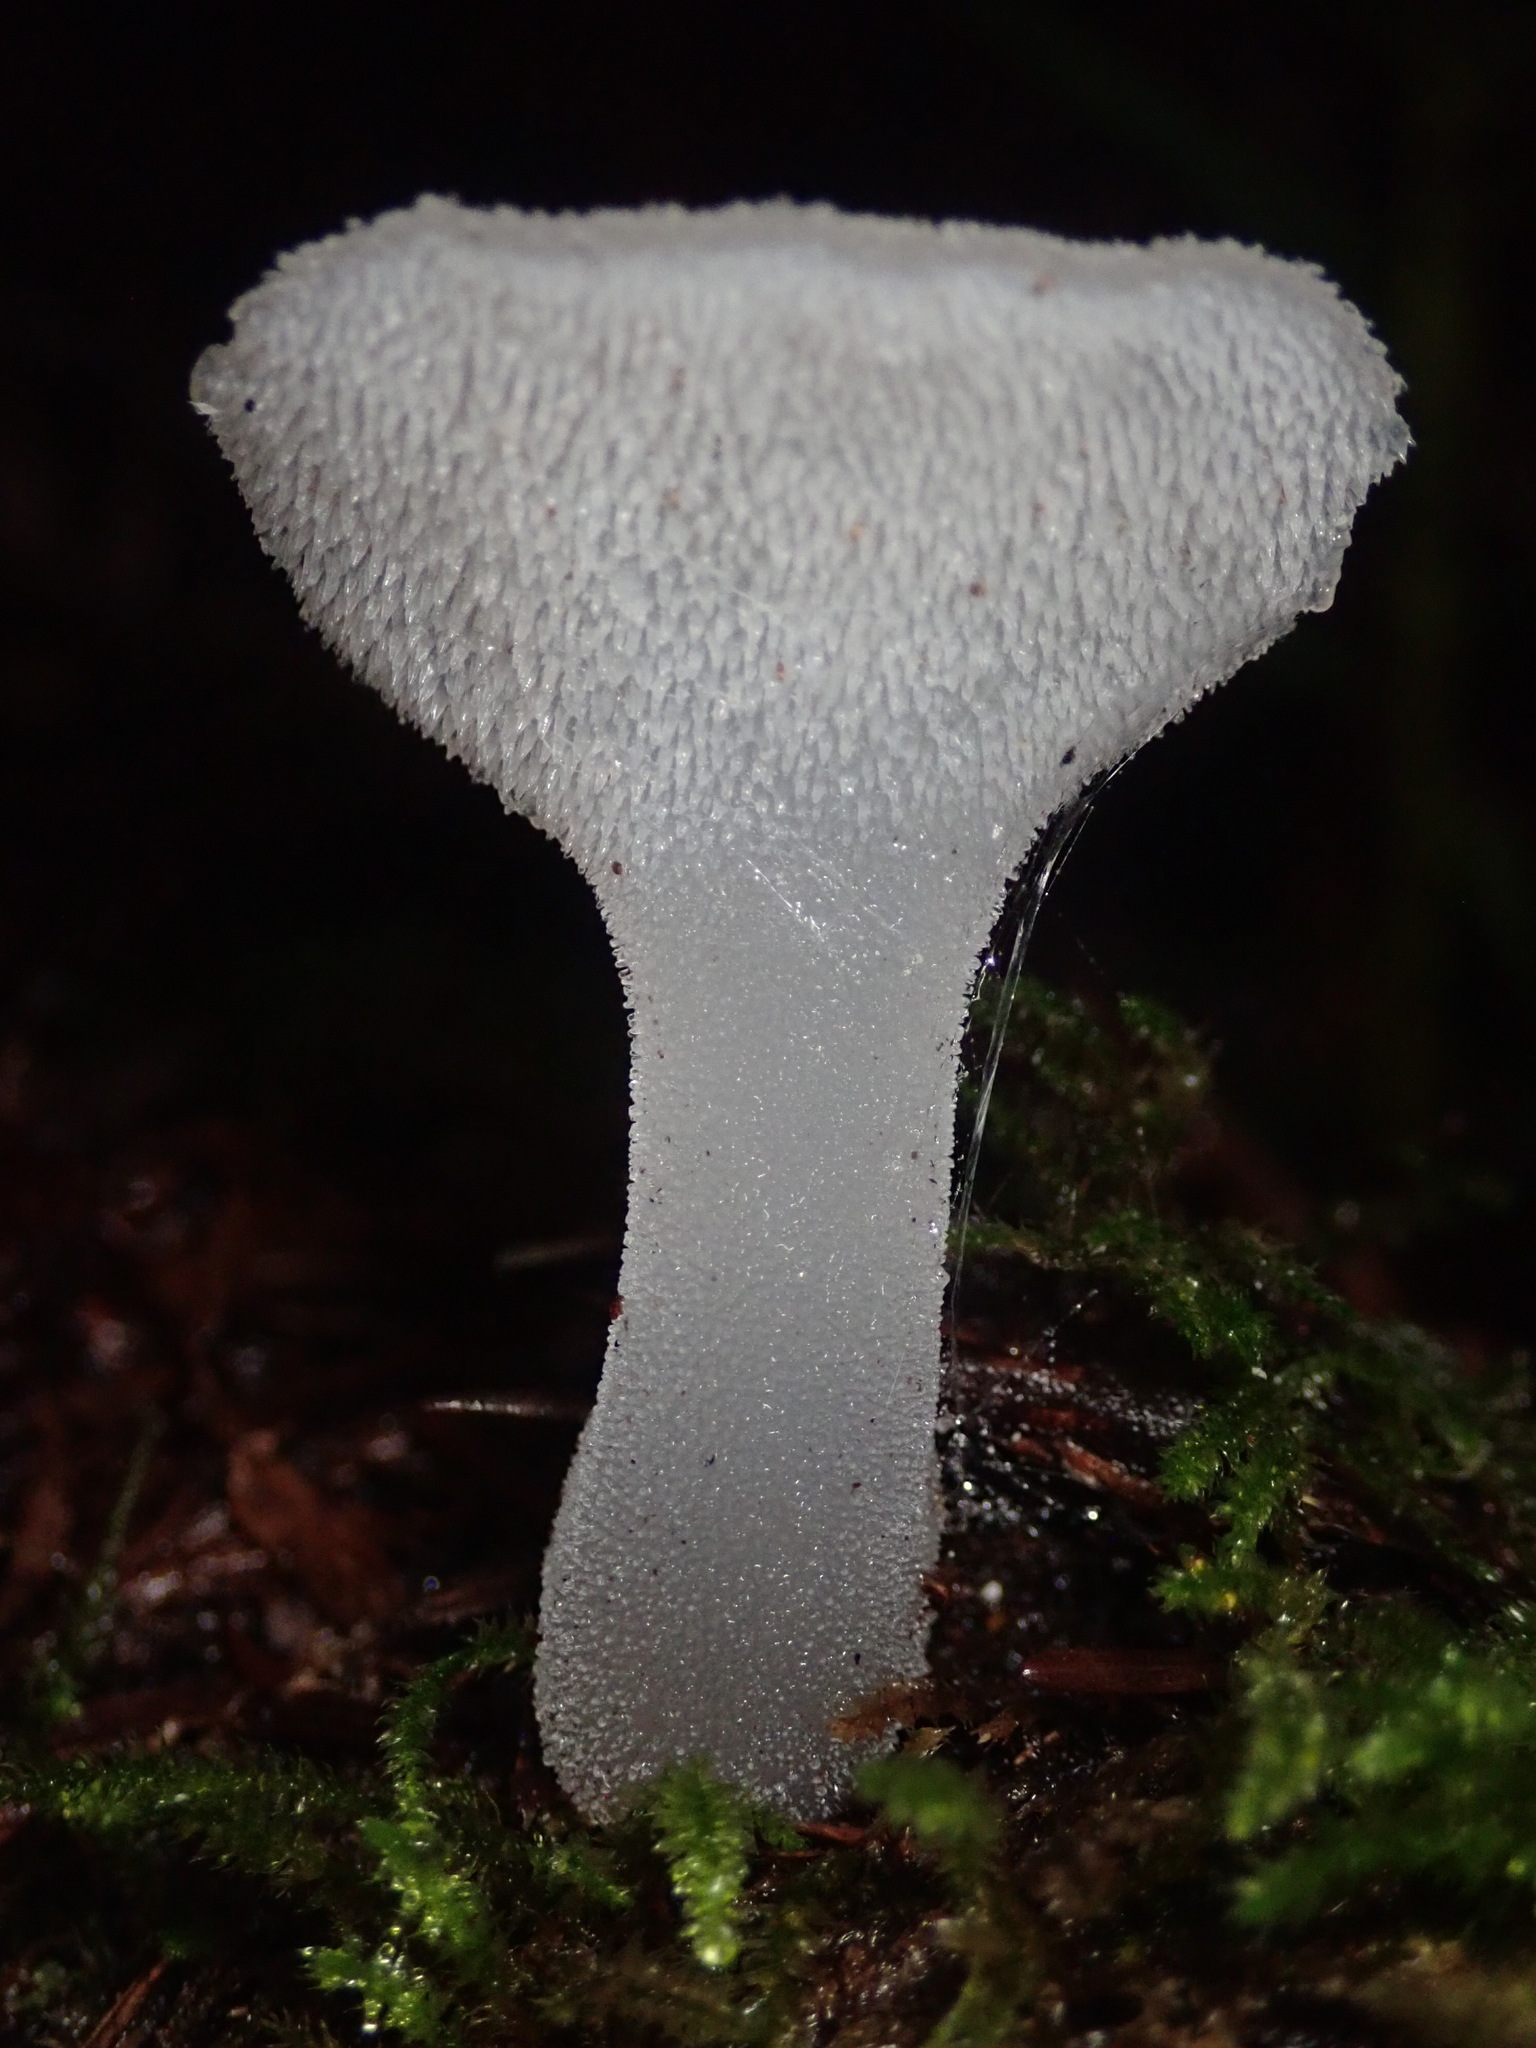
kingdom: Fungi
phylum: Basidiomycota
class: Agaricomycetes
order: Auriculariales
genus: Pseudohydnum
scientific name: Pseudohydnum gelatinosum
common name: Jelly tongue
